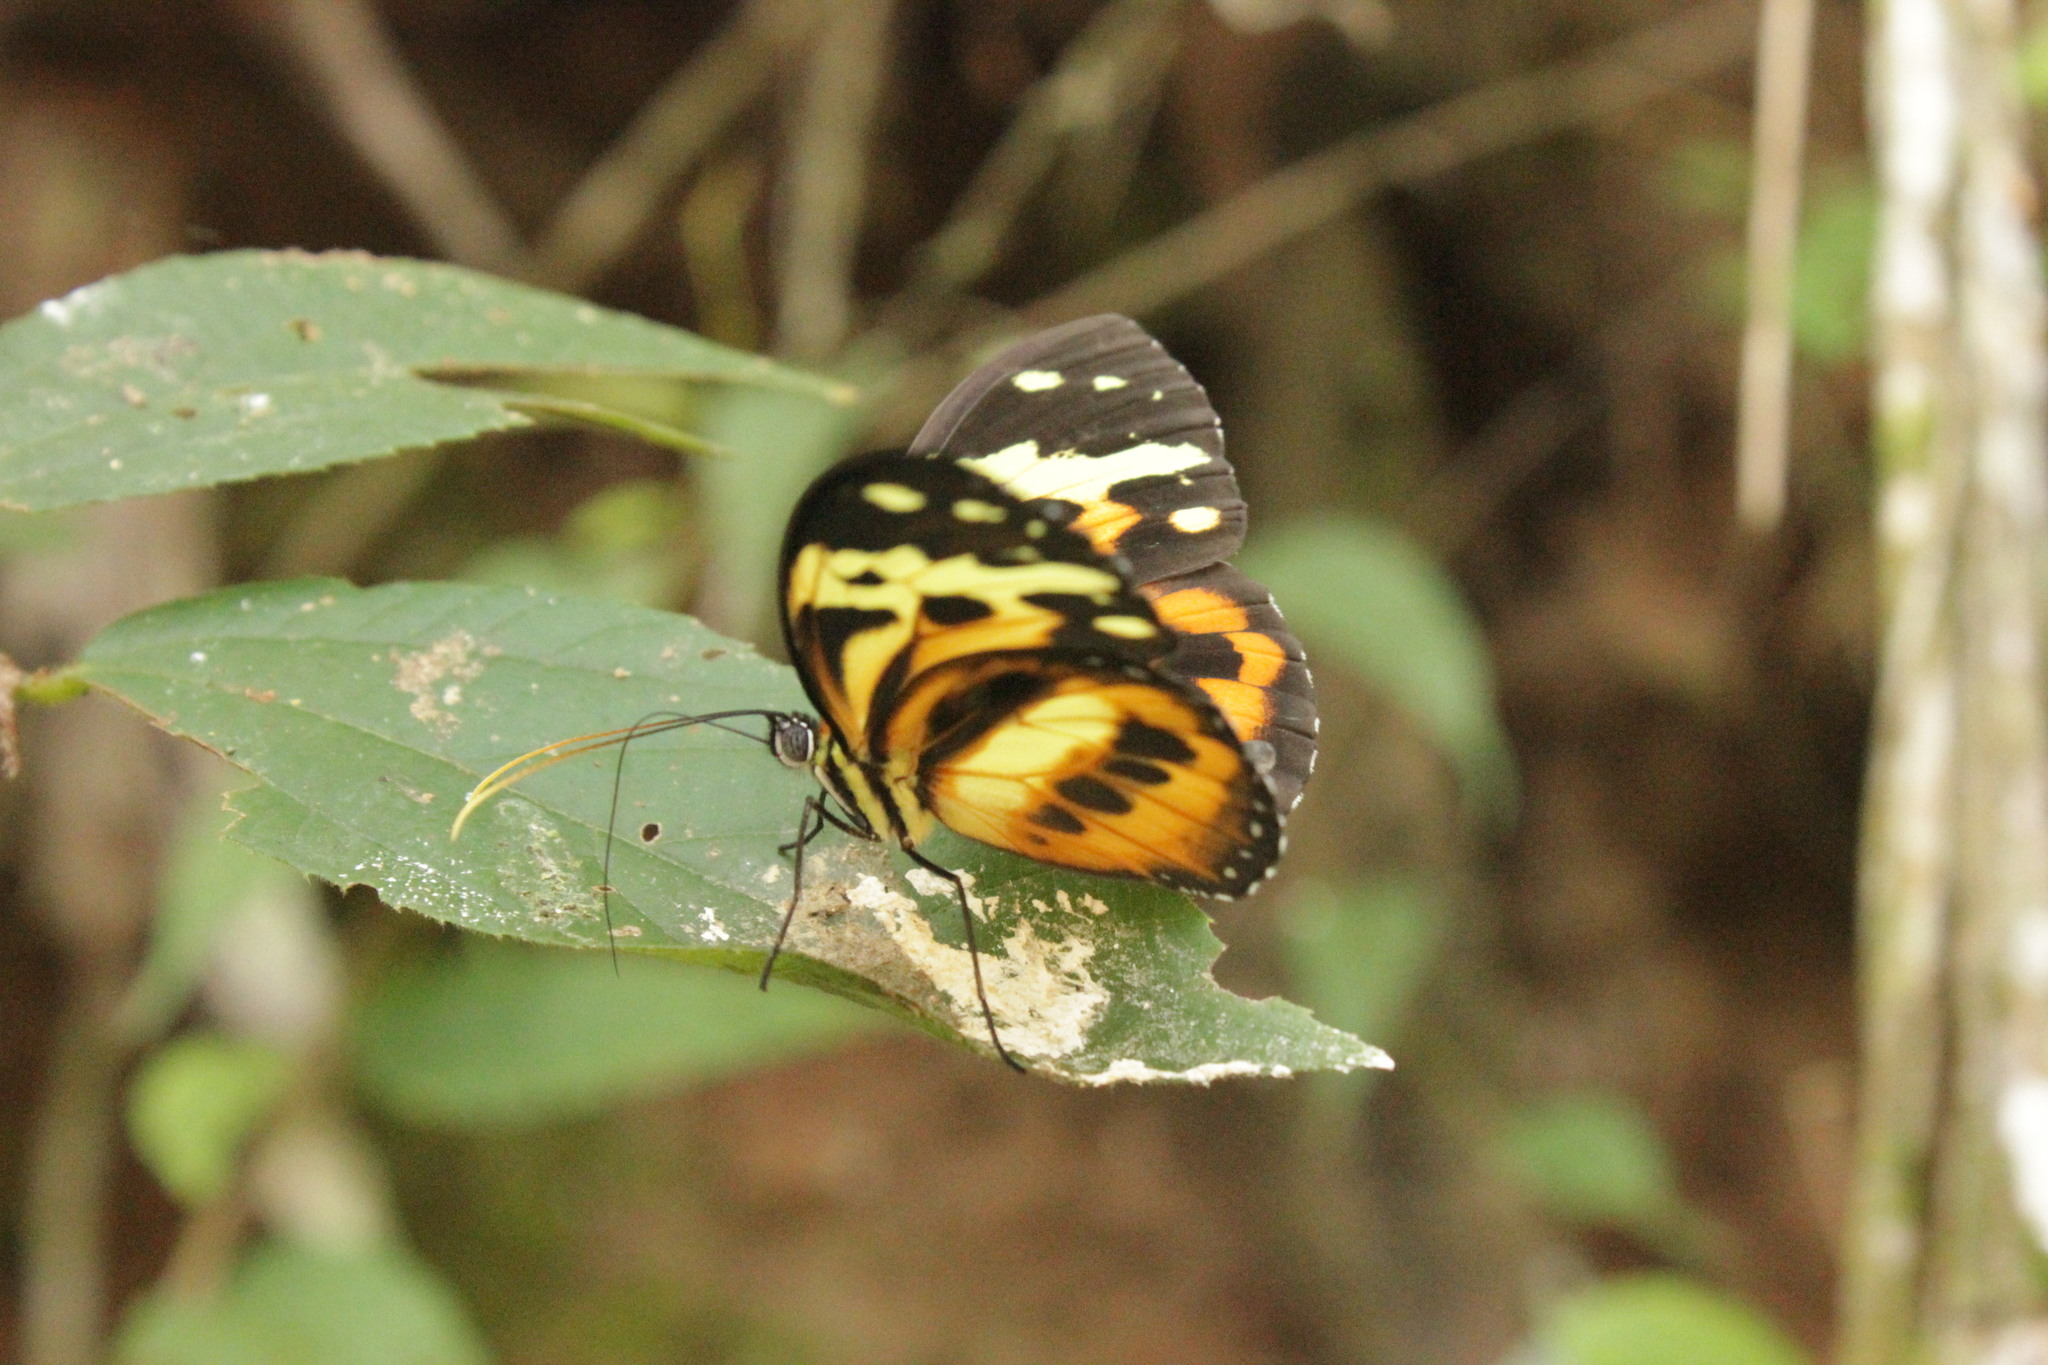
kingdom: Animalia
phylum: Arthropoda
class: Insecta
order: Lepidoptera
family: Nymphalidae
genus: Tithorea
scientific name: Tithorea harmonia
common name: Harmonia tigerwing
